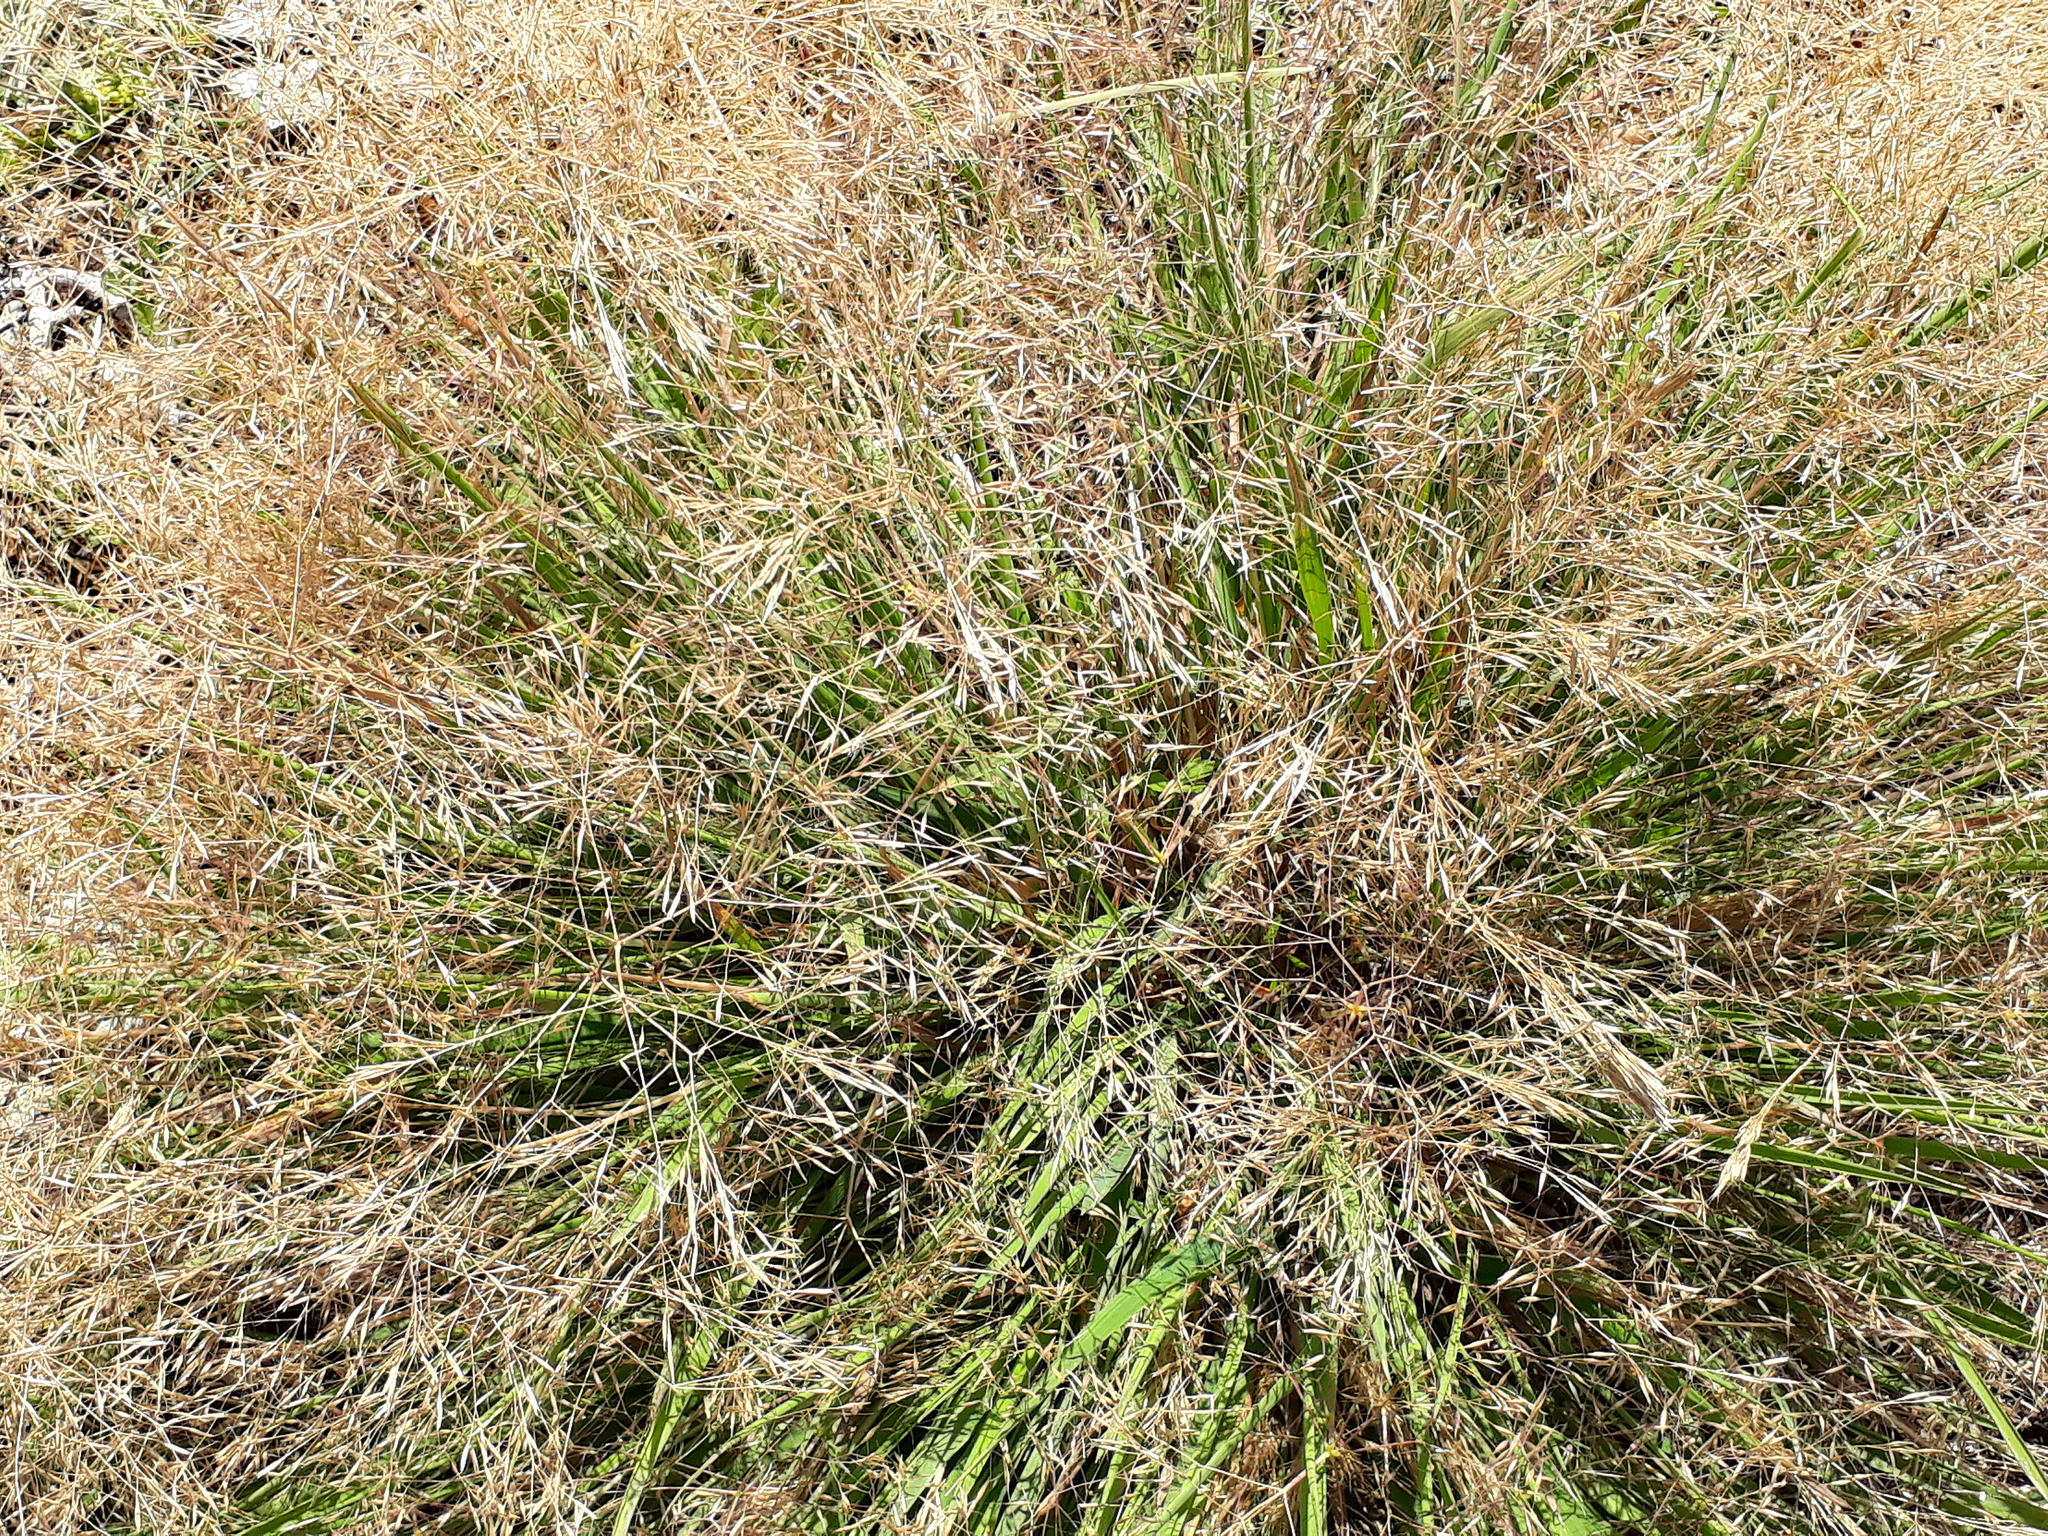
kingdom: Plantae
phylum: Tracheophyta
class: Liliopsida
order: Poales
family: Poaceae
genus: Lachnagrostis
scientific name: Lachnagrostis billardierei
